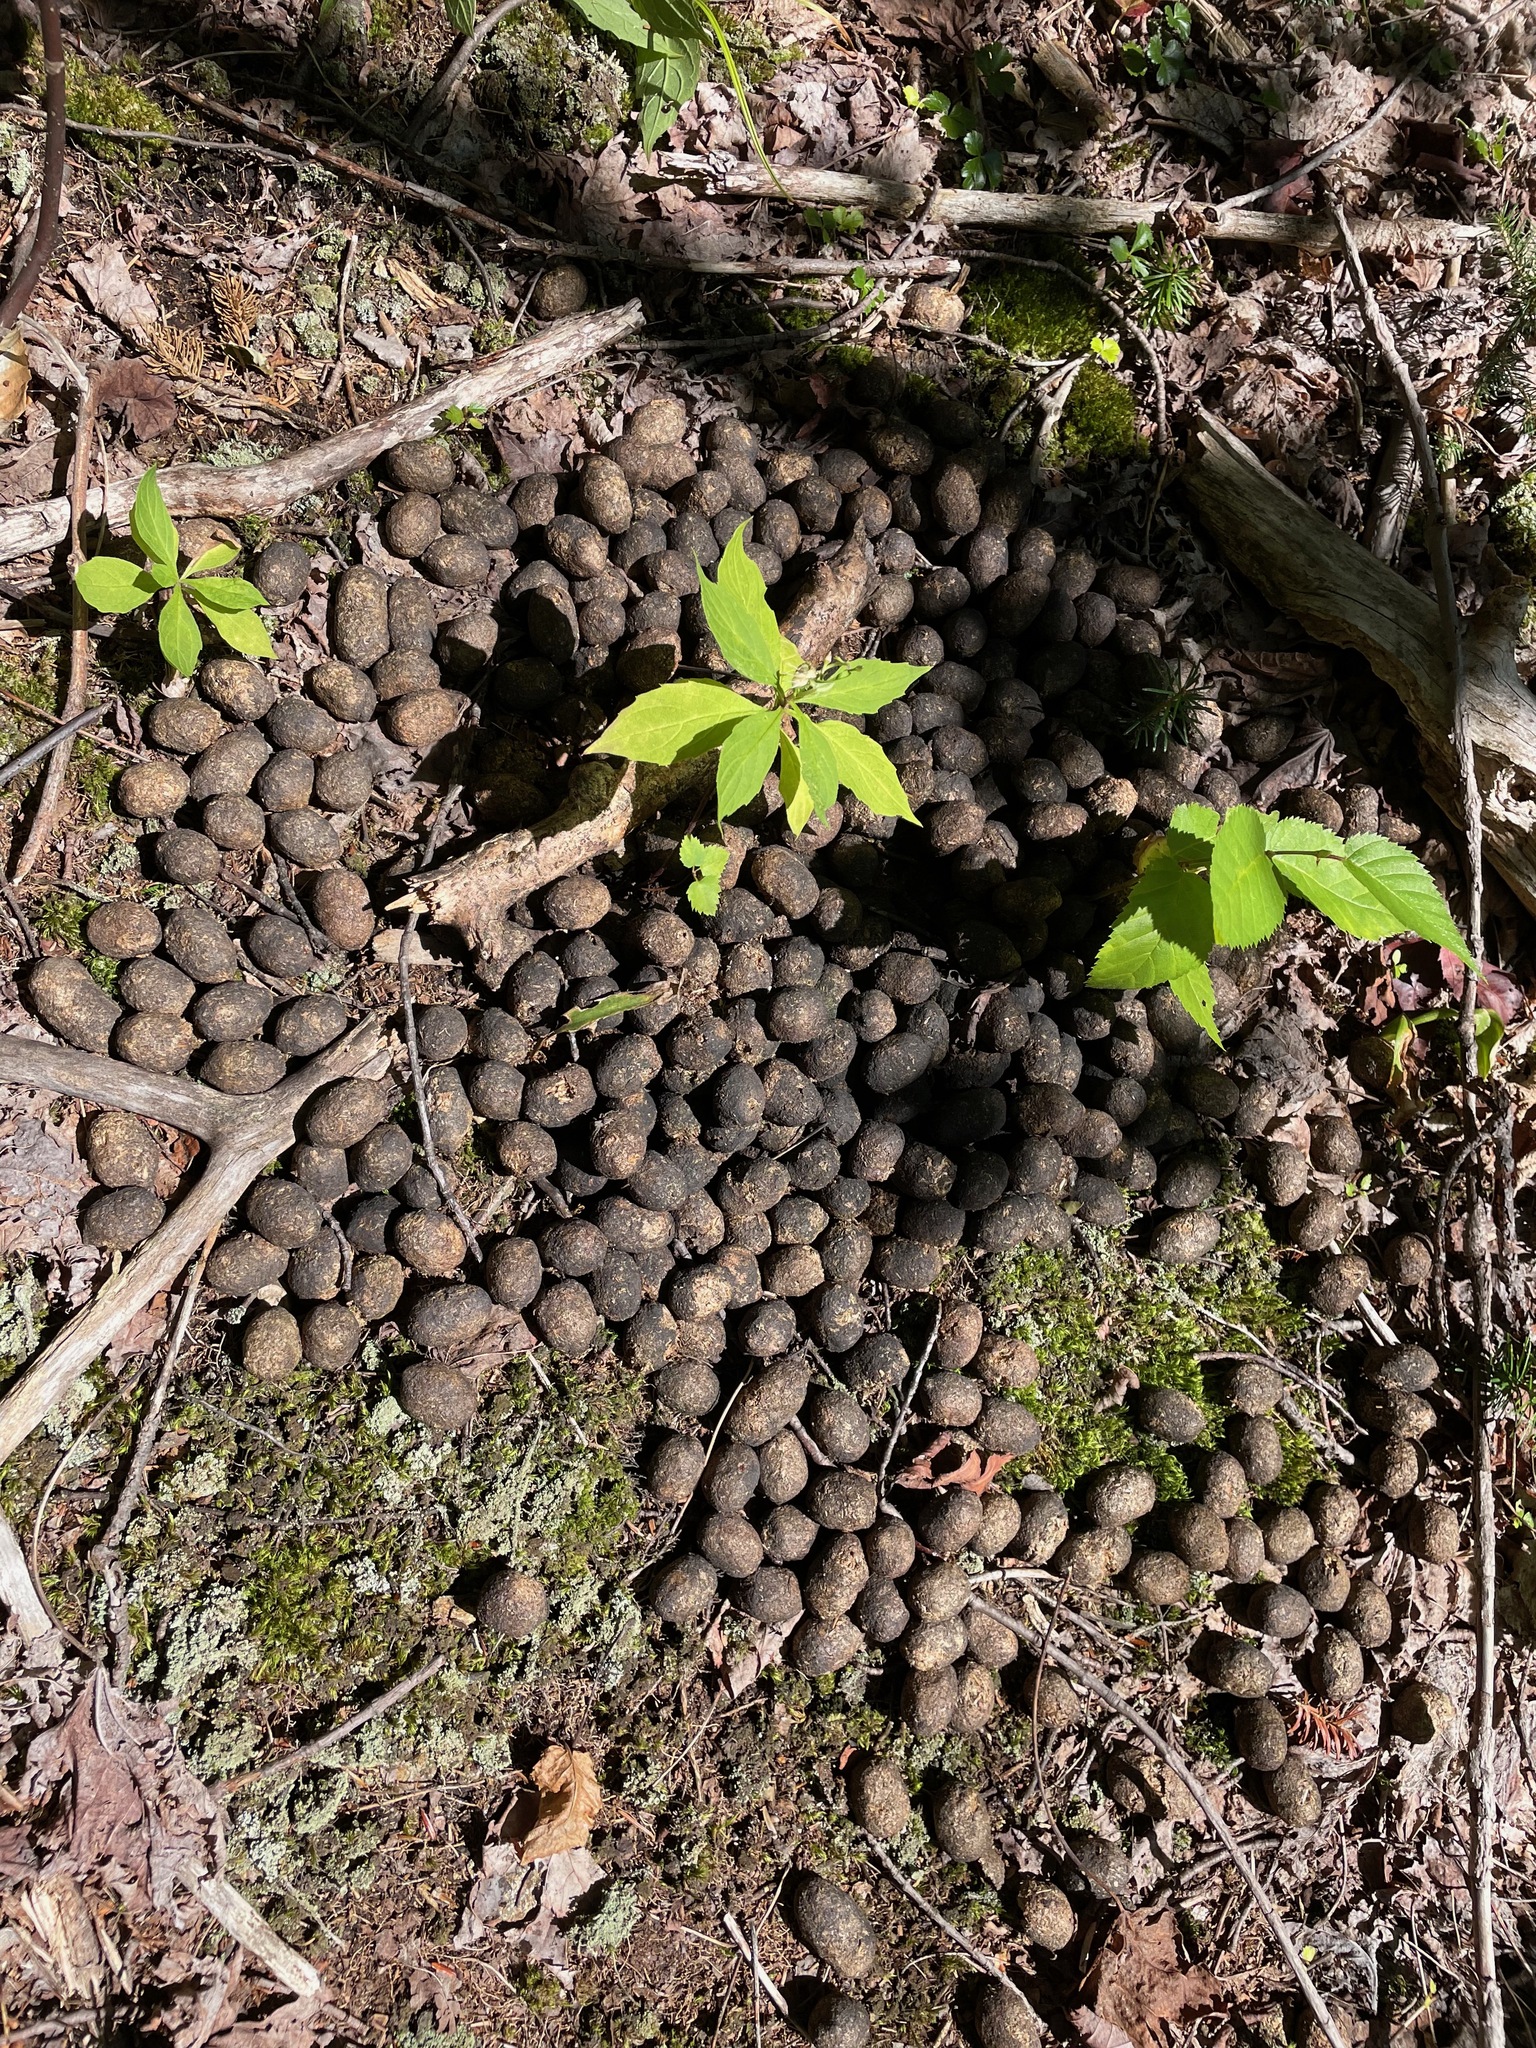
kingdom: Animalia
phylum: Chordata
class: Mammalia
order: Artiodactyla
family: Cervidae
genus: Alces
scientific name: Alces alces
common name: Moose
